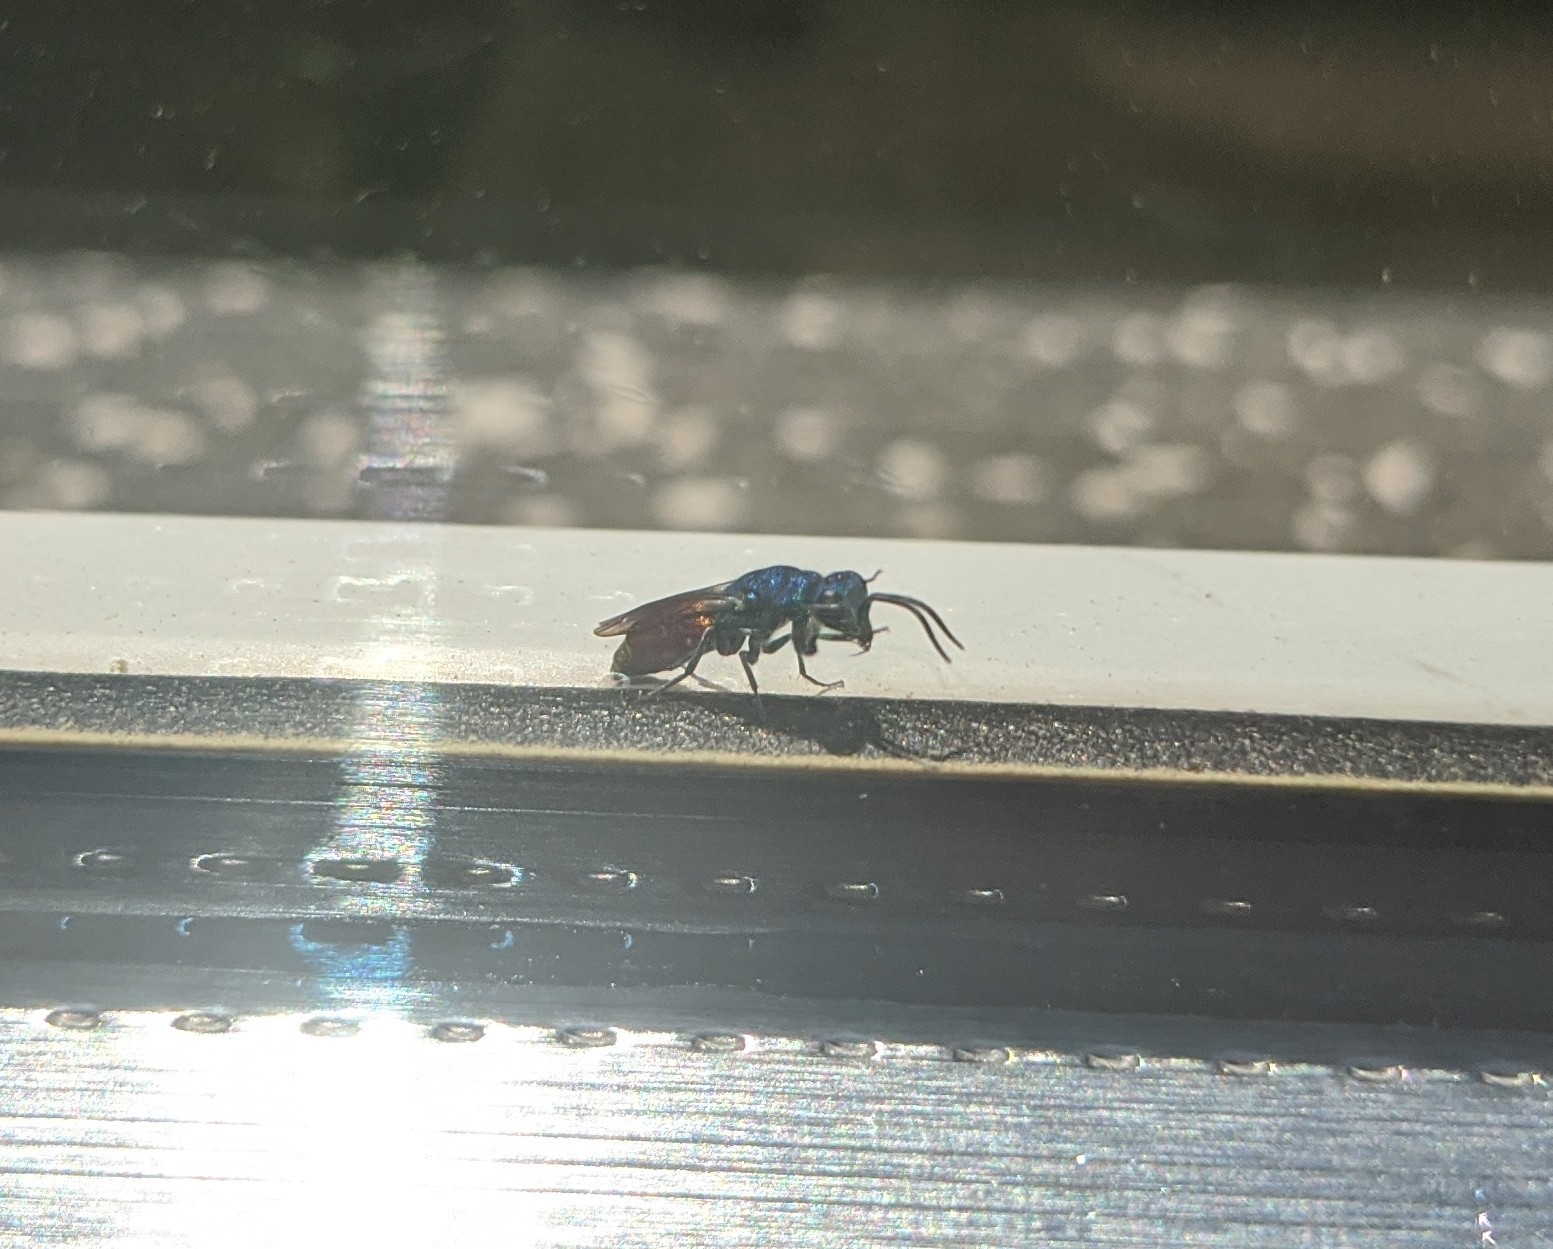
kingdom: Animalia
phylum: Arthropoda
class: Insecta
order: Hymenoptera
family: Chrysididae
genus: Chrysis
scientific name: Chrysis terminata
